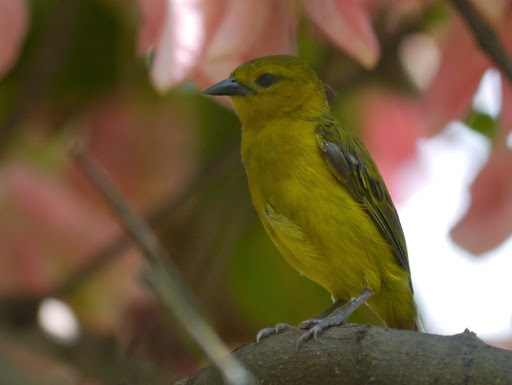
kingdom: Animalia
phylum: Chordata
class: Aves
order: Passeriformes
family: Ploceidae
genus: Ploceus
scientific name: Ploceus pelzelni
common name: Slender-billed weaver
